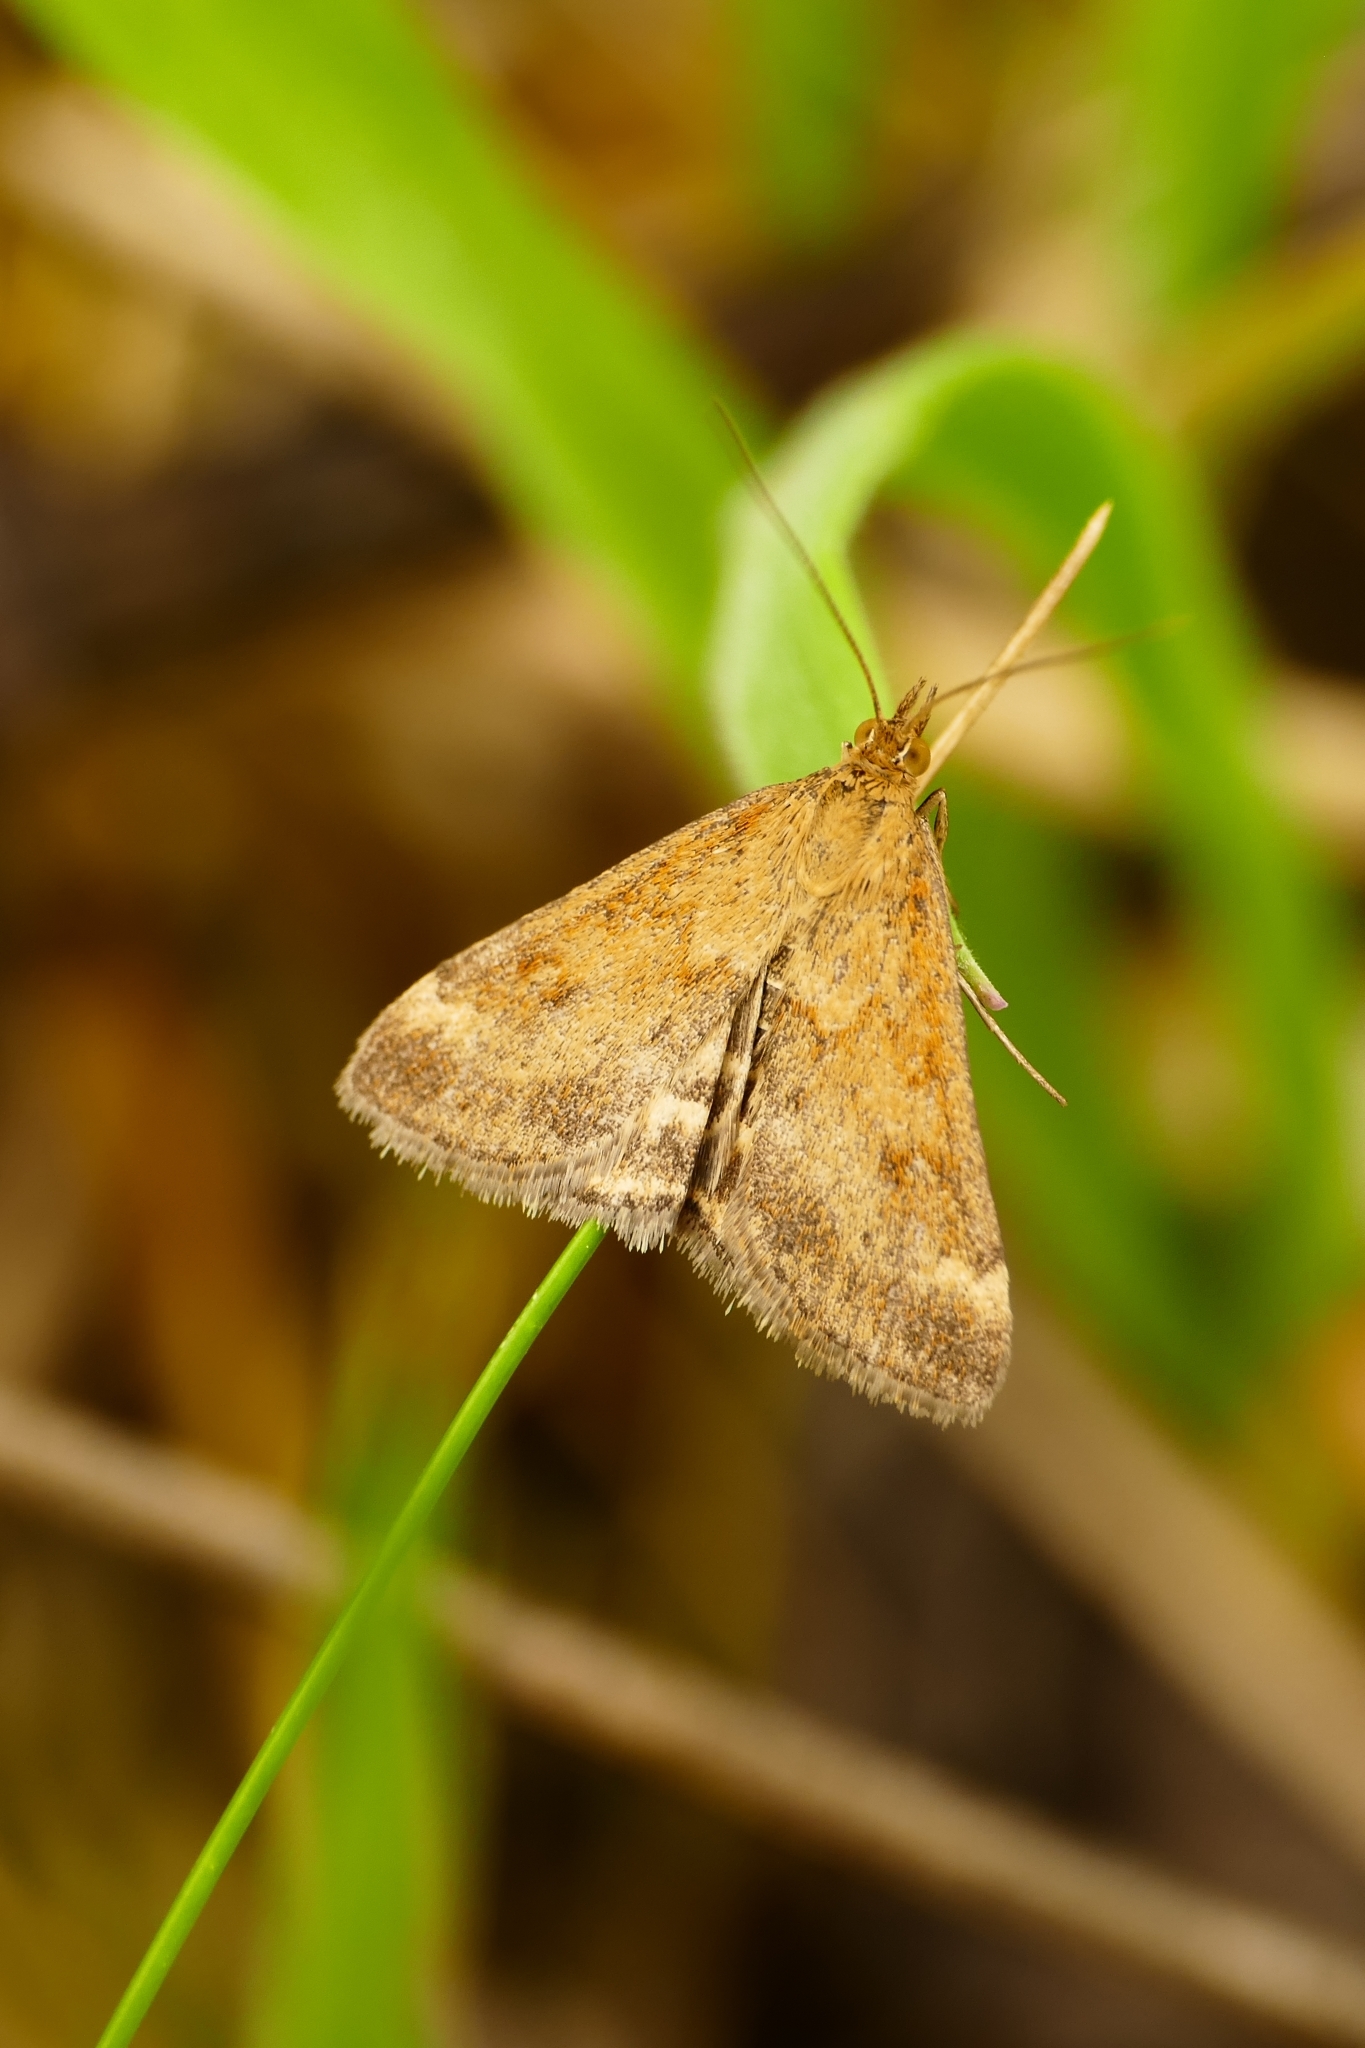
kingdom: Animalia
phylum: Arthropoda
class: Insecta
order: Lepidoptera
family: Crambidae
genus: Pyrausta
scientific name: Pyrausta despicata
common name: Straw-barred pearl
